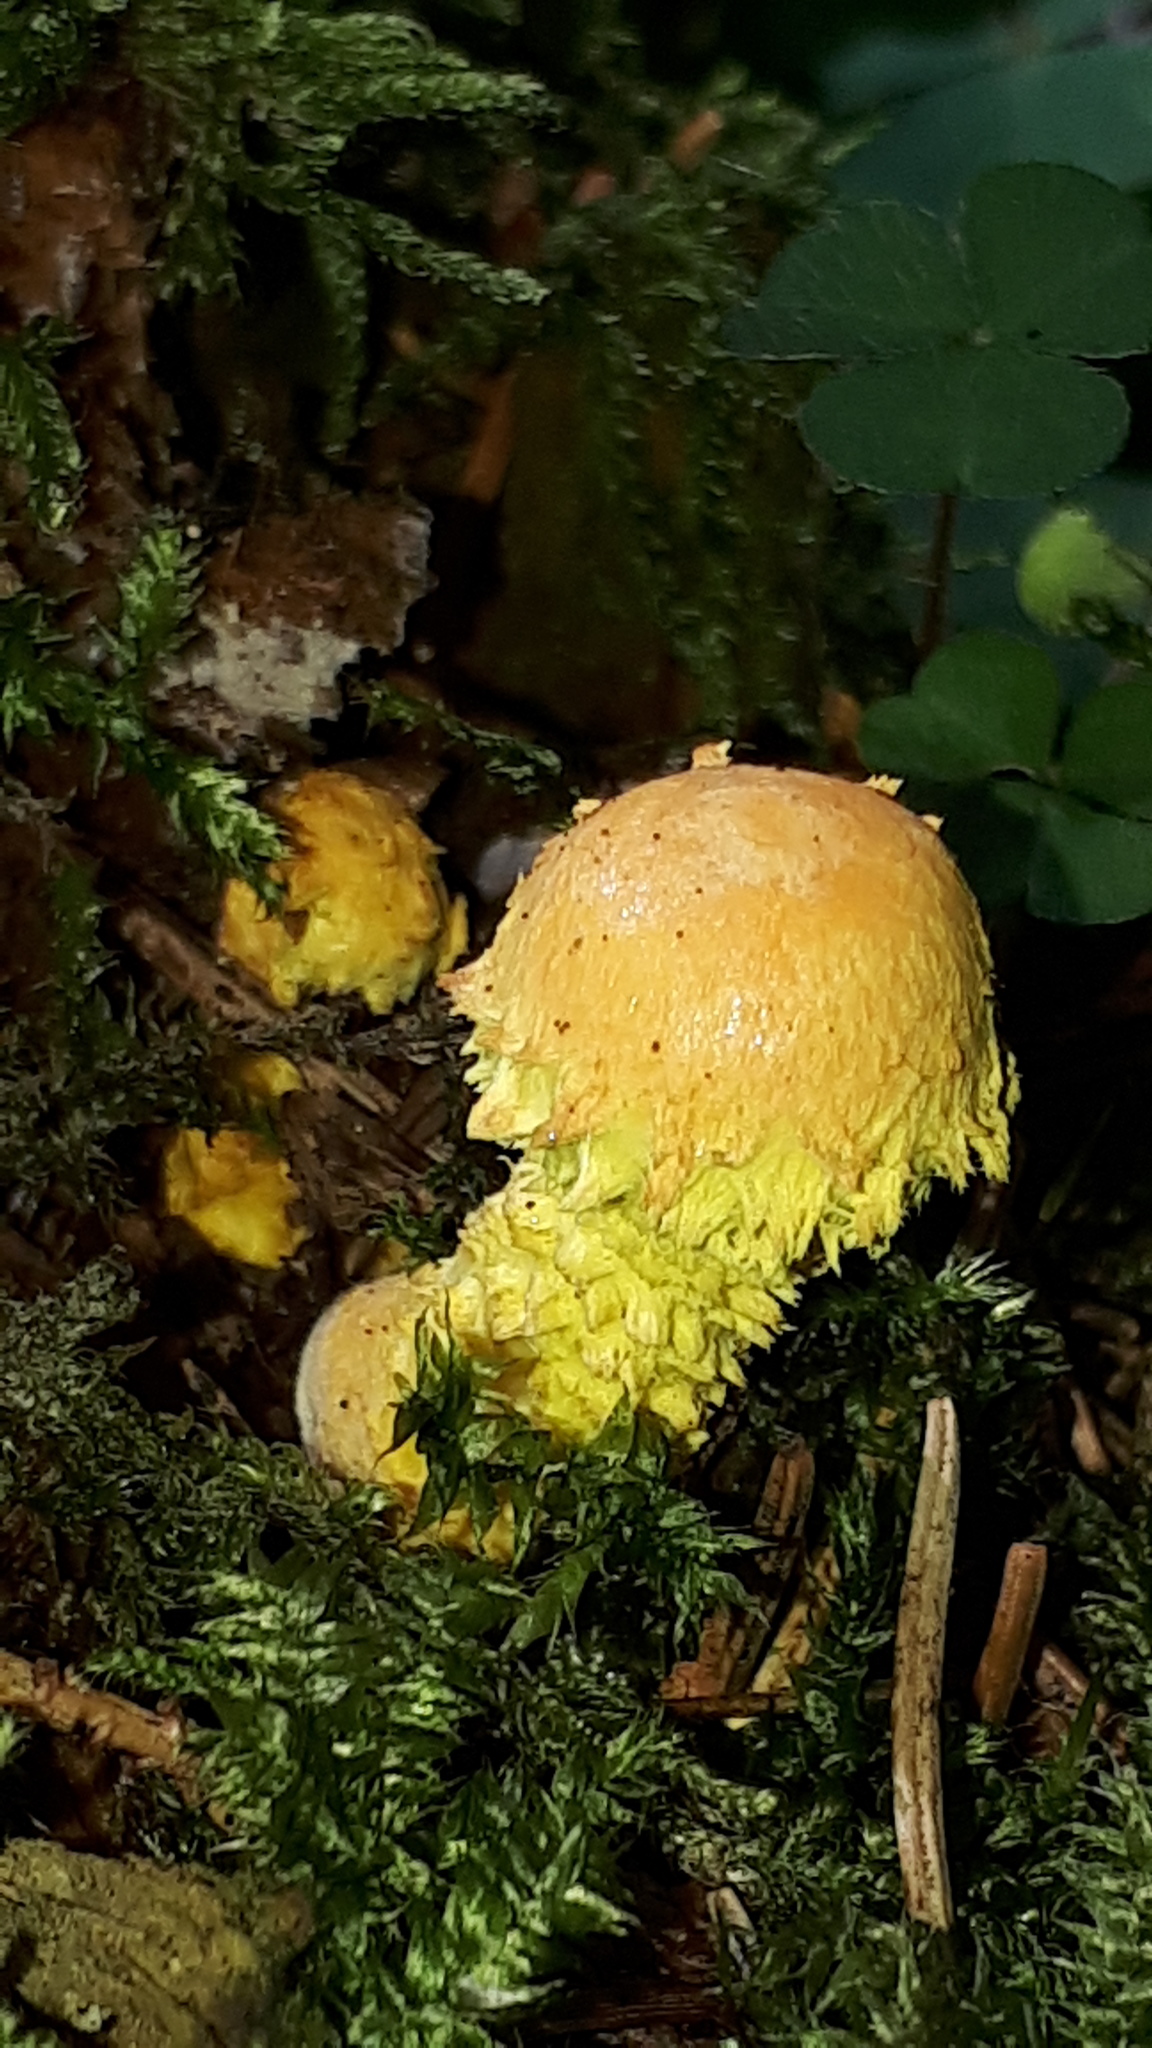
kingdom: Fungi
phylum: Basidiomycota
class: Agaricomycetes
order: Agaricales
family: Strophariaceae
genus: Pholiota
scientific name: Pholiota flammans
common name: Flaming scalycap
